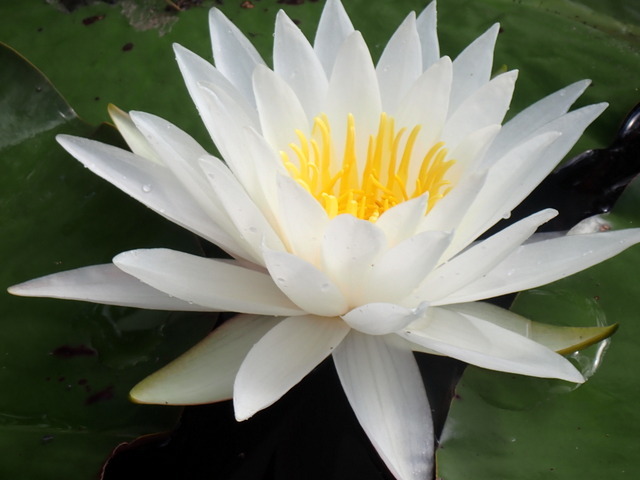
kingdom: Plantae
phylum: Tracheophyta
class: Magnoliopsida
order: Nymphaeales
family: Nymphaeaceae
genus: Nymphaea
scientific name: Nymphaea odorata
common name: Fragrant water-lily
